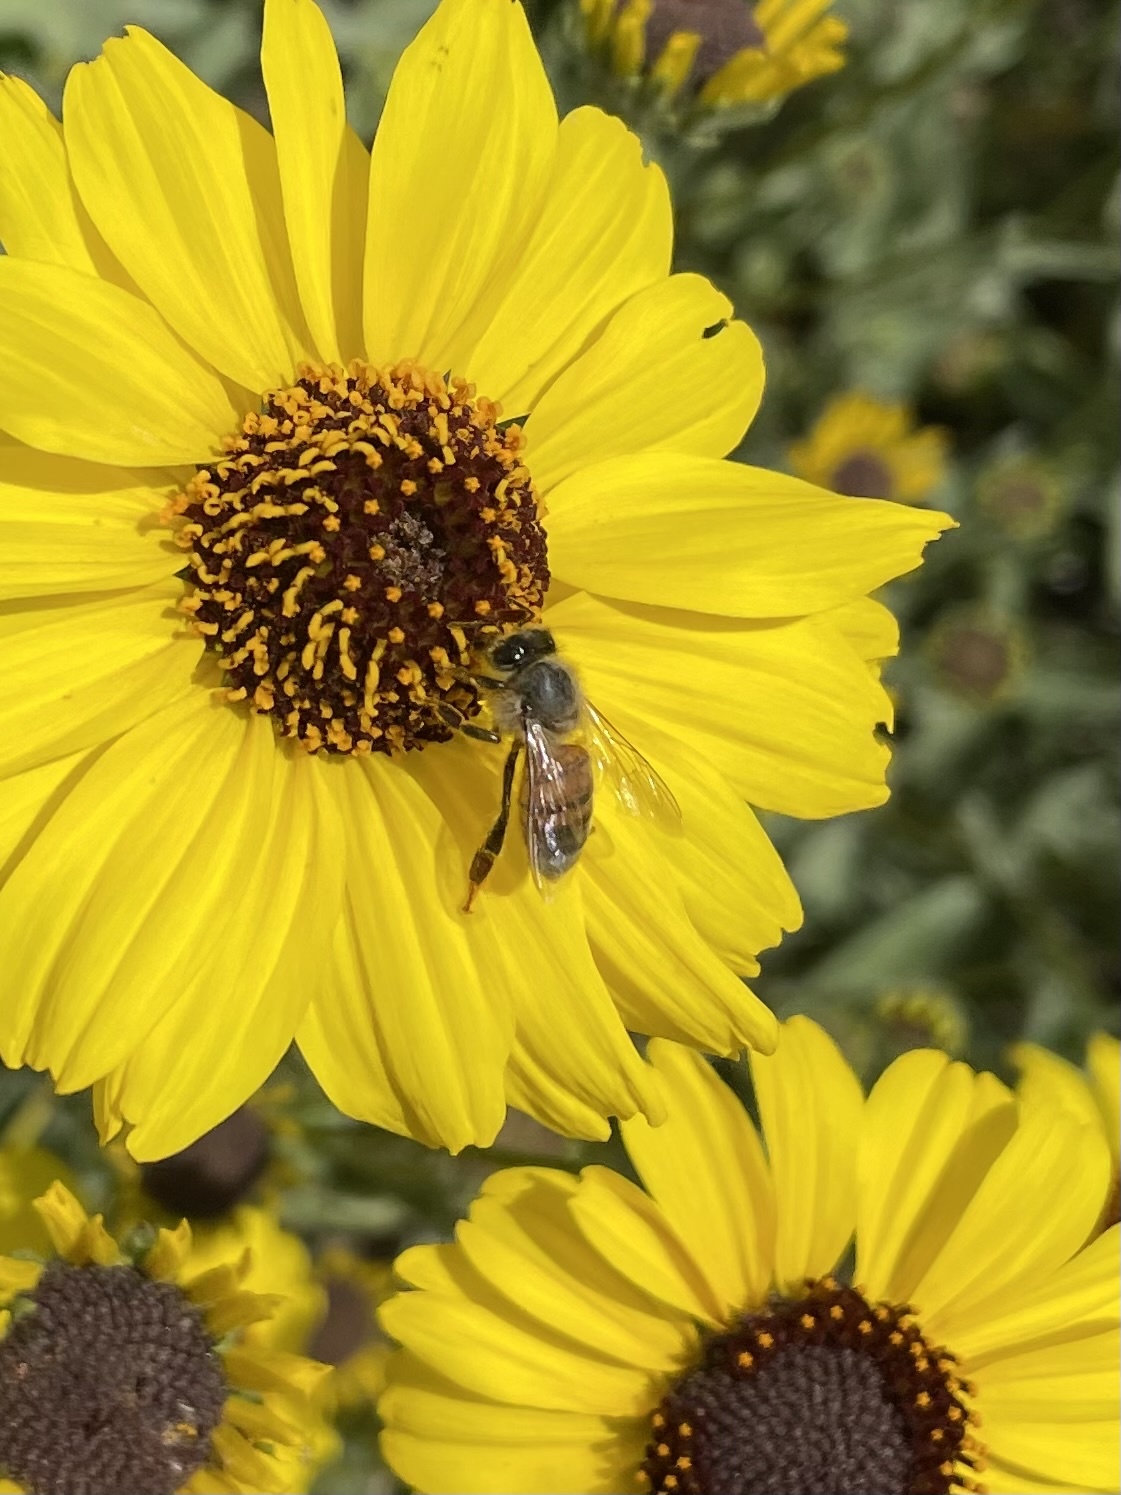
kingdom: Animalia
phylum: Arthropoda
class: Insecta
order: Hymenoptera
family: Apidae
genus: Apis
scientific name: Apis mellifera
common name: Honey bee
